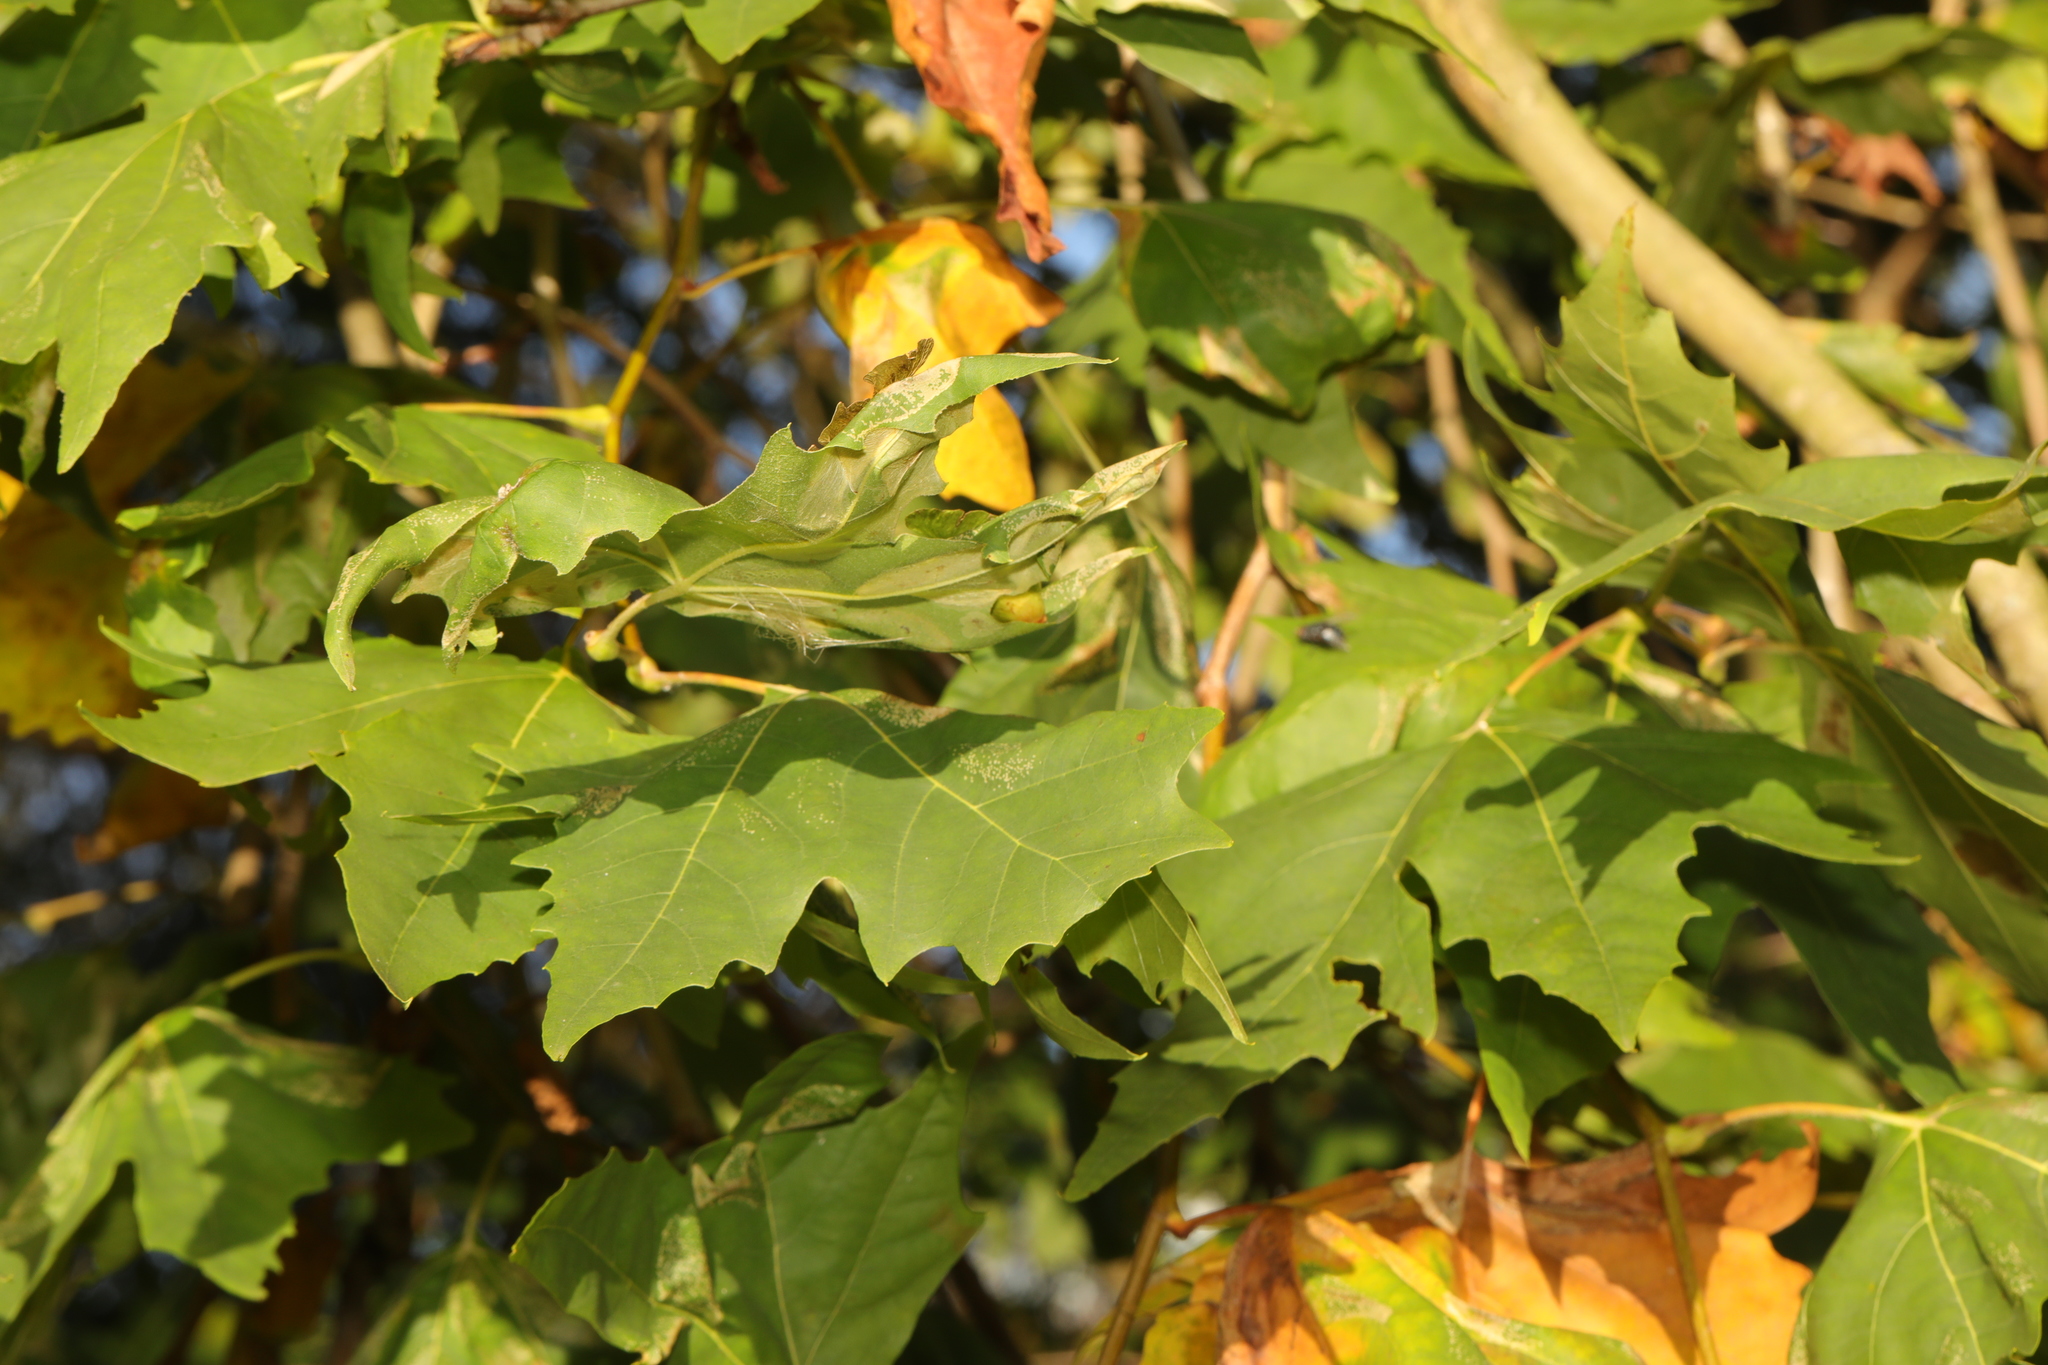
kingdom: Plantae
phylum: Tracheophyta
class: Magnoliopsida
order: Proteales
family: Platanaceae
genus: Platanus
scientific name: Platanus hispanica
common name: London plane
